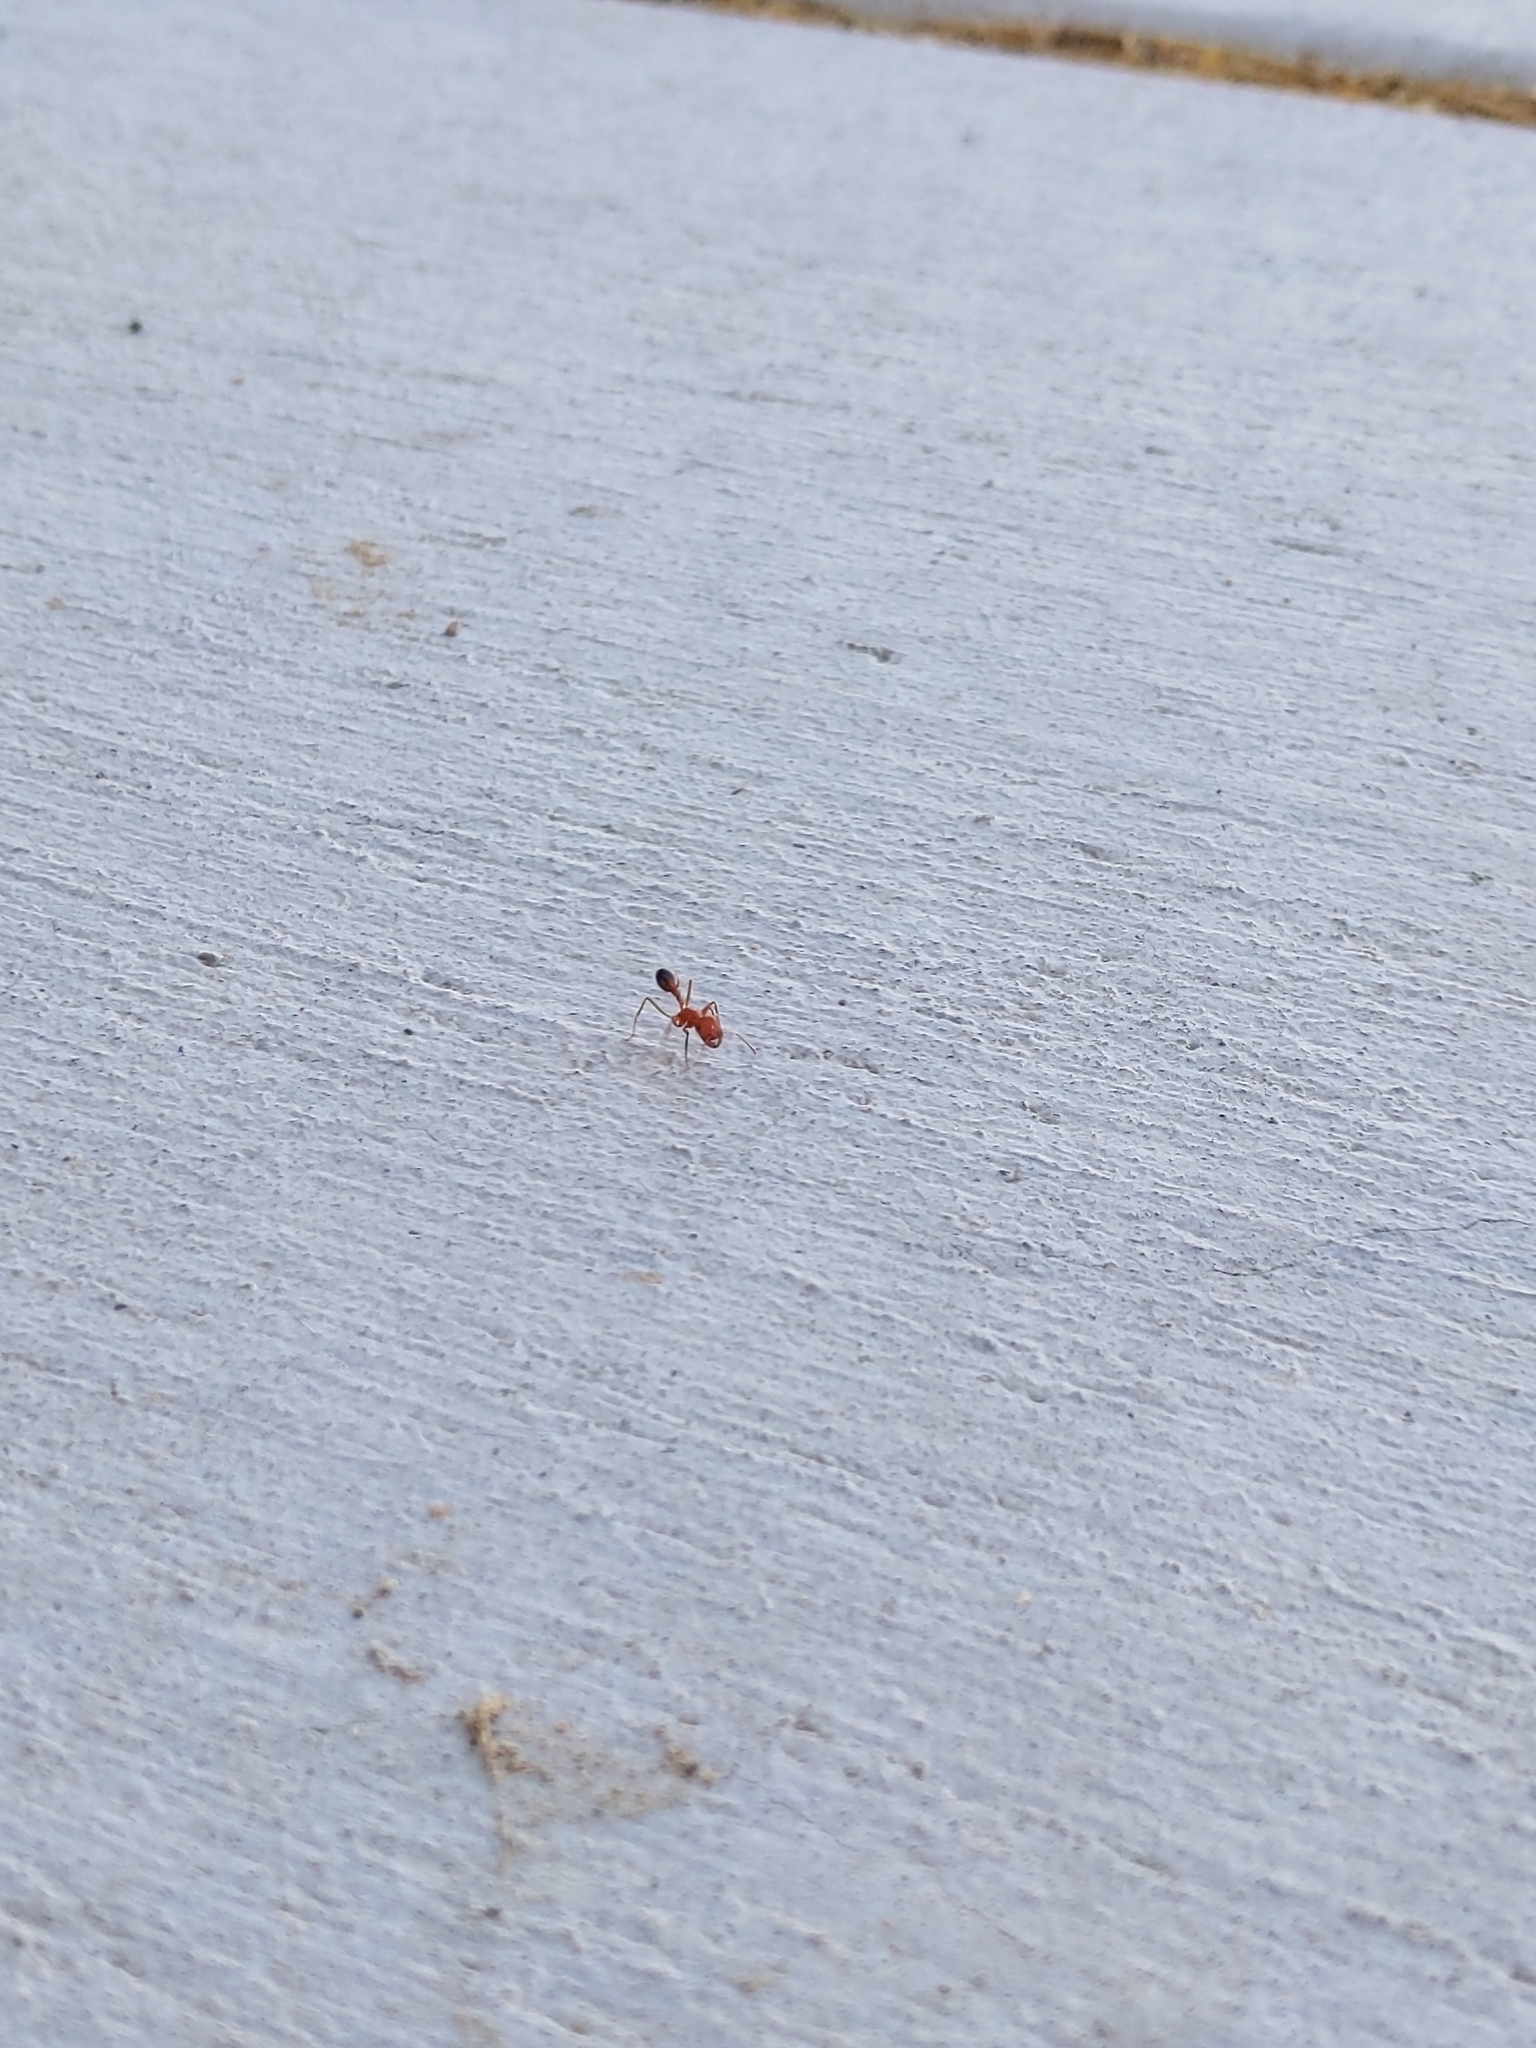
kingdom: Animalia
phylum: Arthropoda
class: Insecta
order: Hymenoptera
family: Formicidae
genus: Pogonomyrmex
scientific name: Pogonomyrmex californicus
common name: California harvester ant
